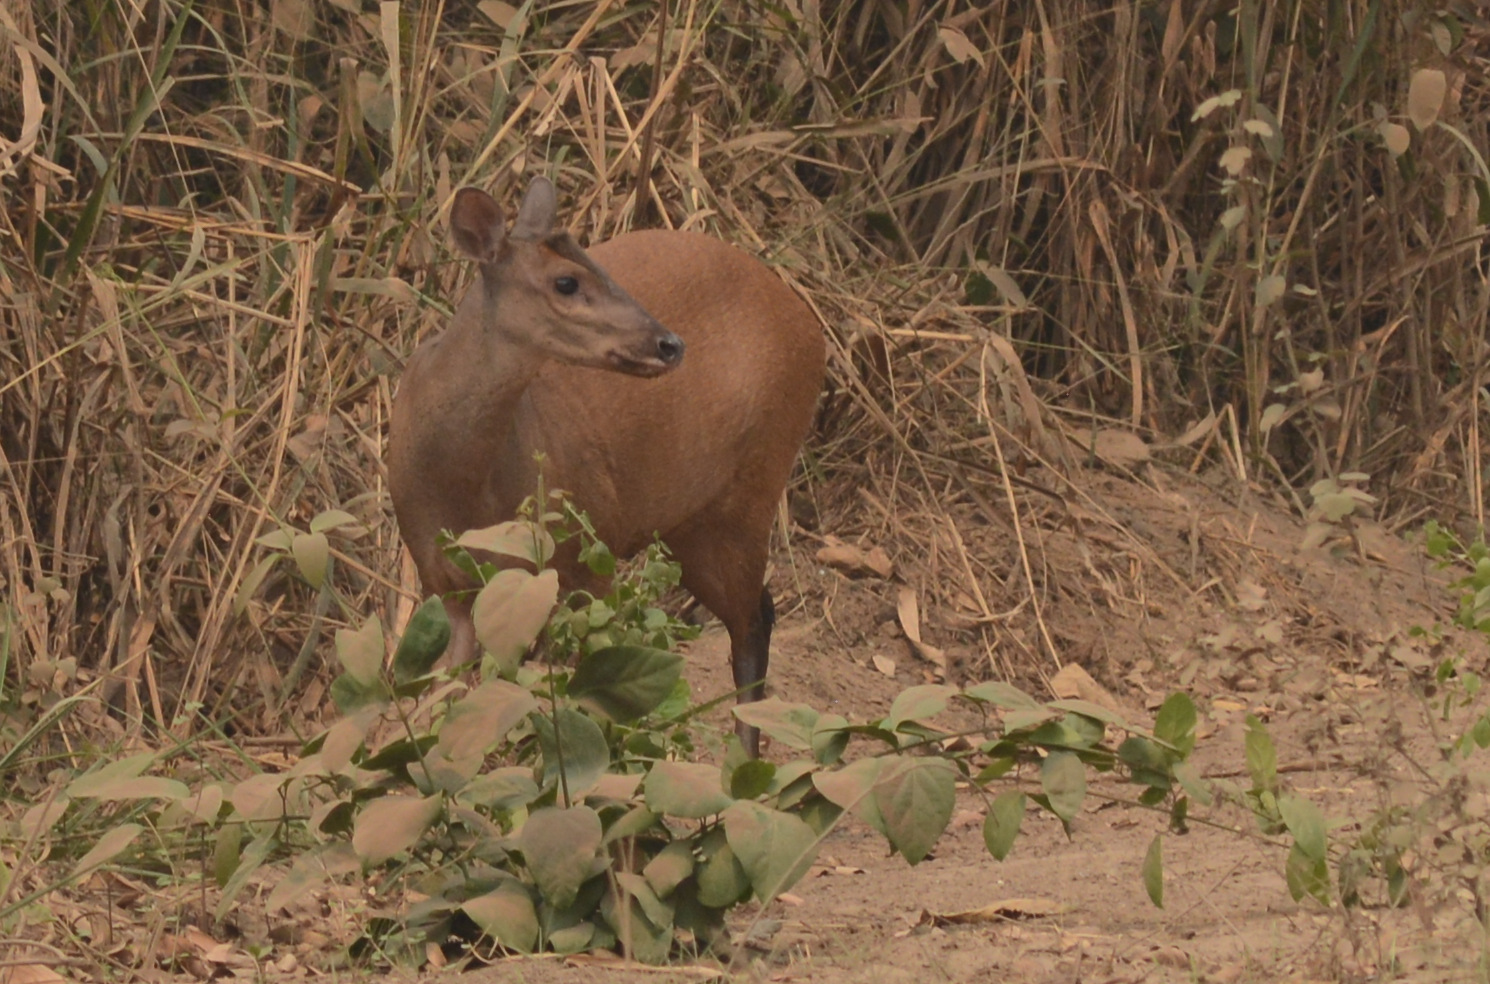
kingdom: Animalia
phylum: Chordata
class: Mammalia
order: Artiodactyla
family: Cervidae
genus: Mazama
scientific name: Mazama americana
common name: Red brocket
